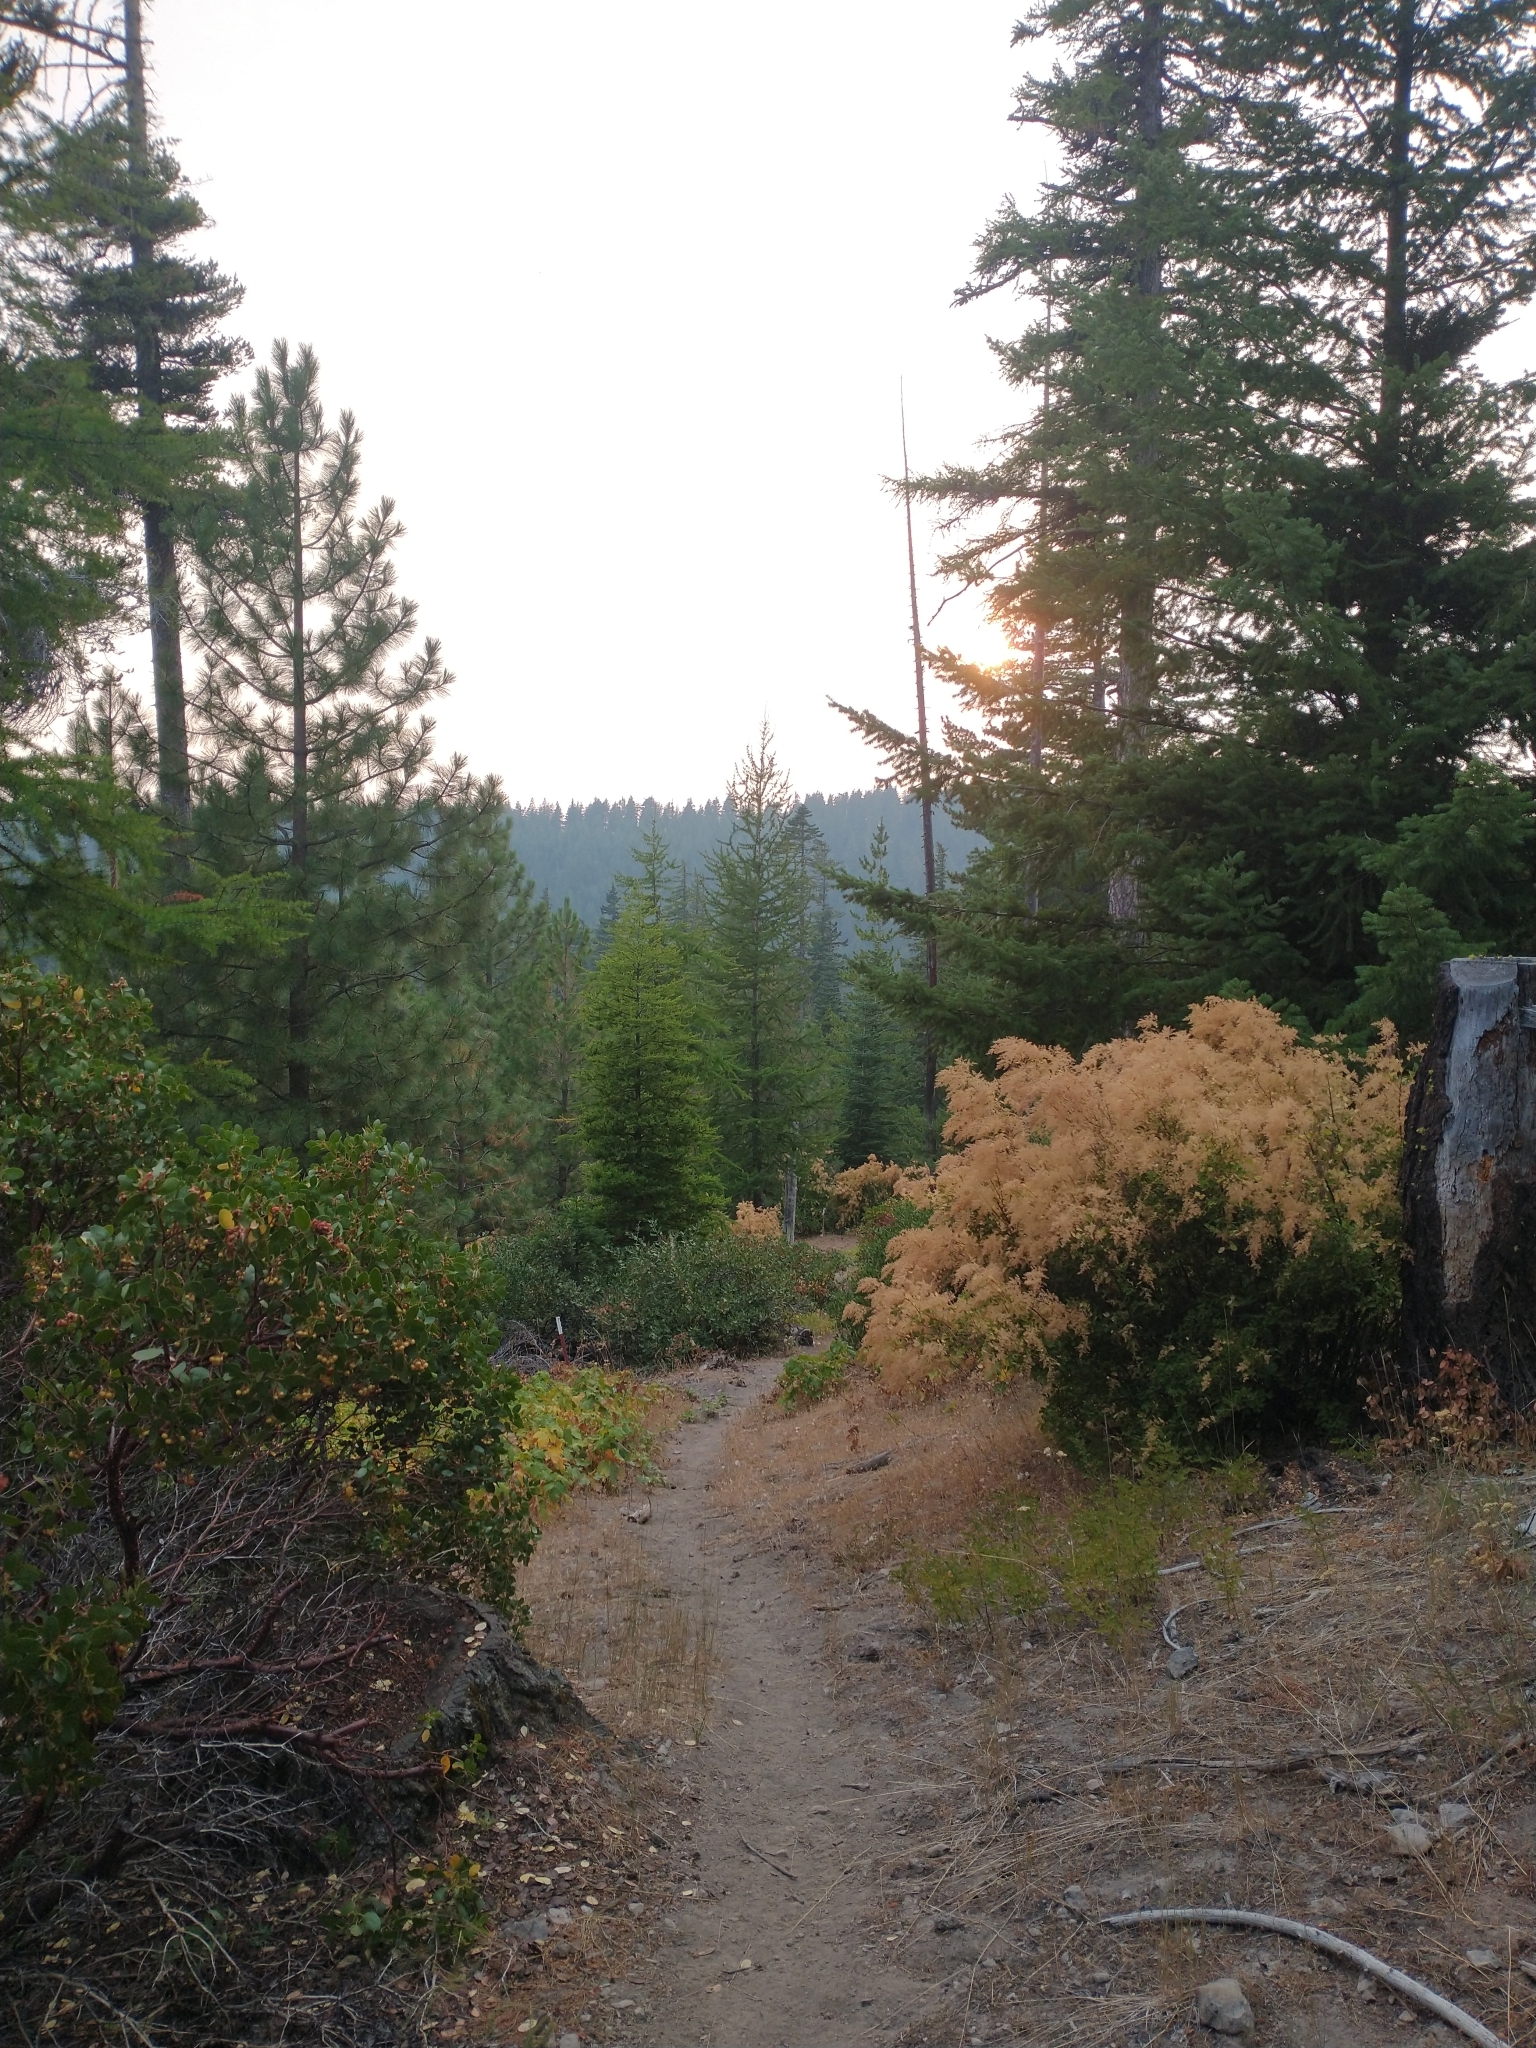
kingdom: Plantae
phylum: Tracheophyta
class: Magnoliopsida
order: Rosales
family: Rosaceae
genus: Holodiscus
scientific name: Holodiscus discolor
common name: Oceanspray
